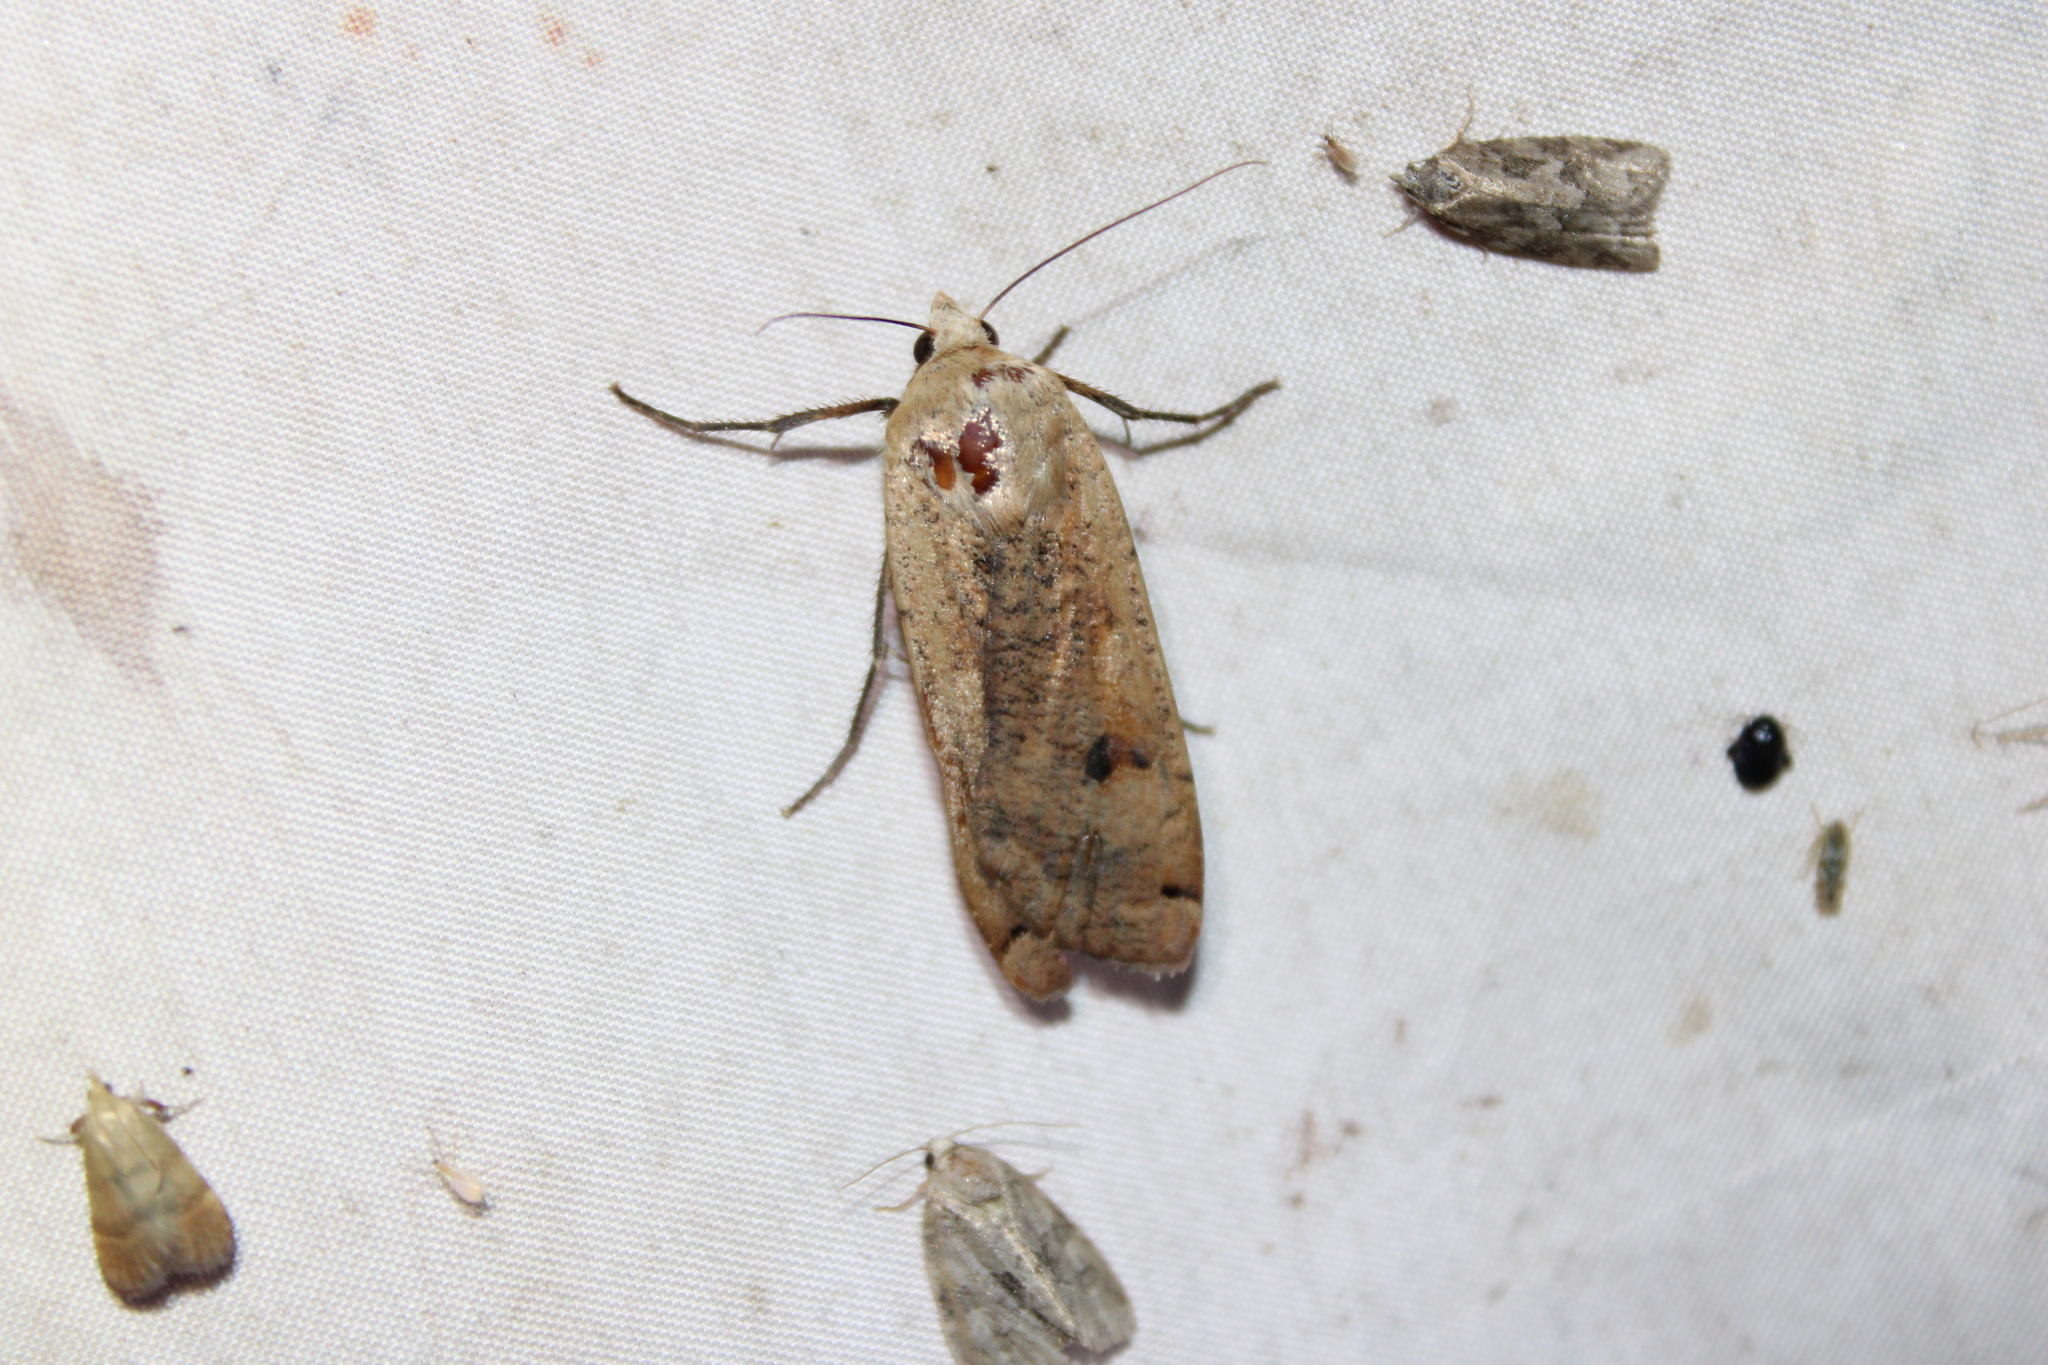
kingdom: Animalia
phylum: Arthropoda
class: Insecta
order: Lepidoptera
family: Noctuidae
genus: Noctua
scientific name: Noctua pronuba
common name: Large yellow underwing
